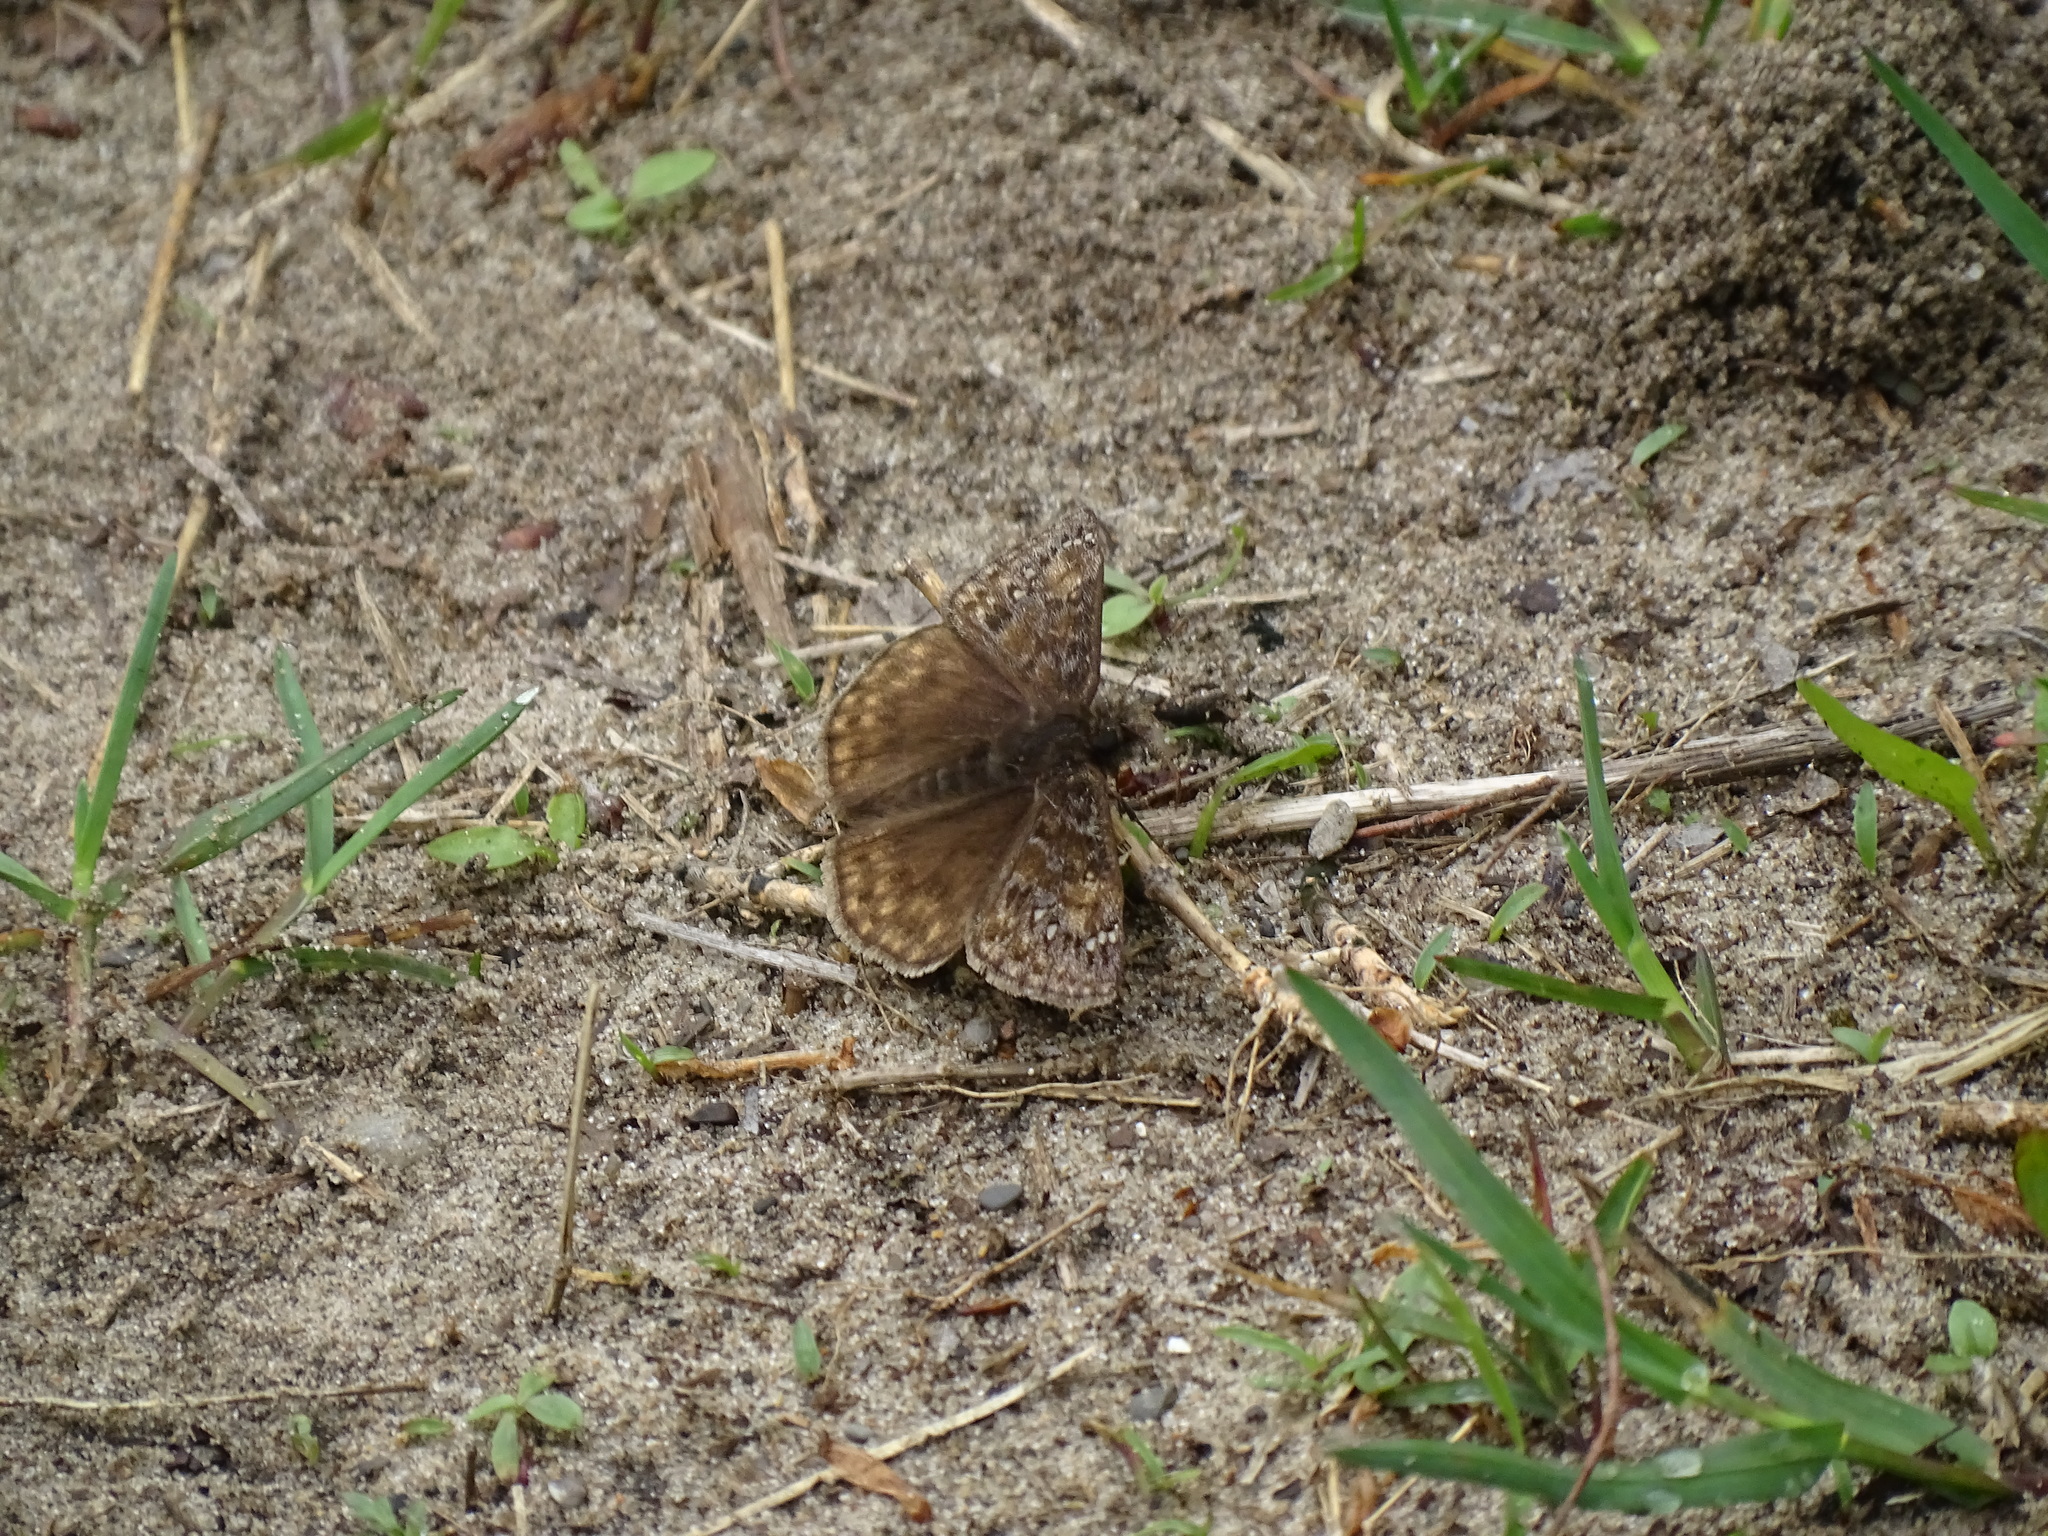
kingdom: Animalia
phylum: Arthropoda
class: Insecta
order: Lepidoptera
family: Hesperiidae
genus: Erynnis
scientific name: Erynnis juvenalis
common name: Juvenal's duskywing
